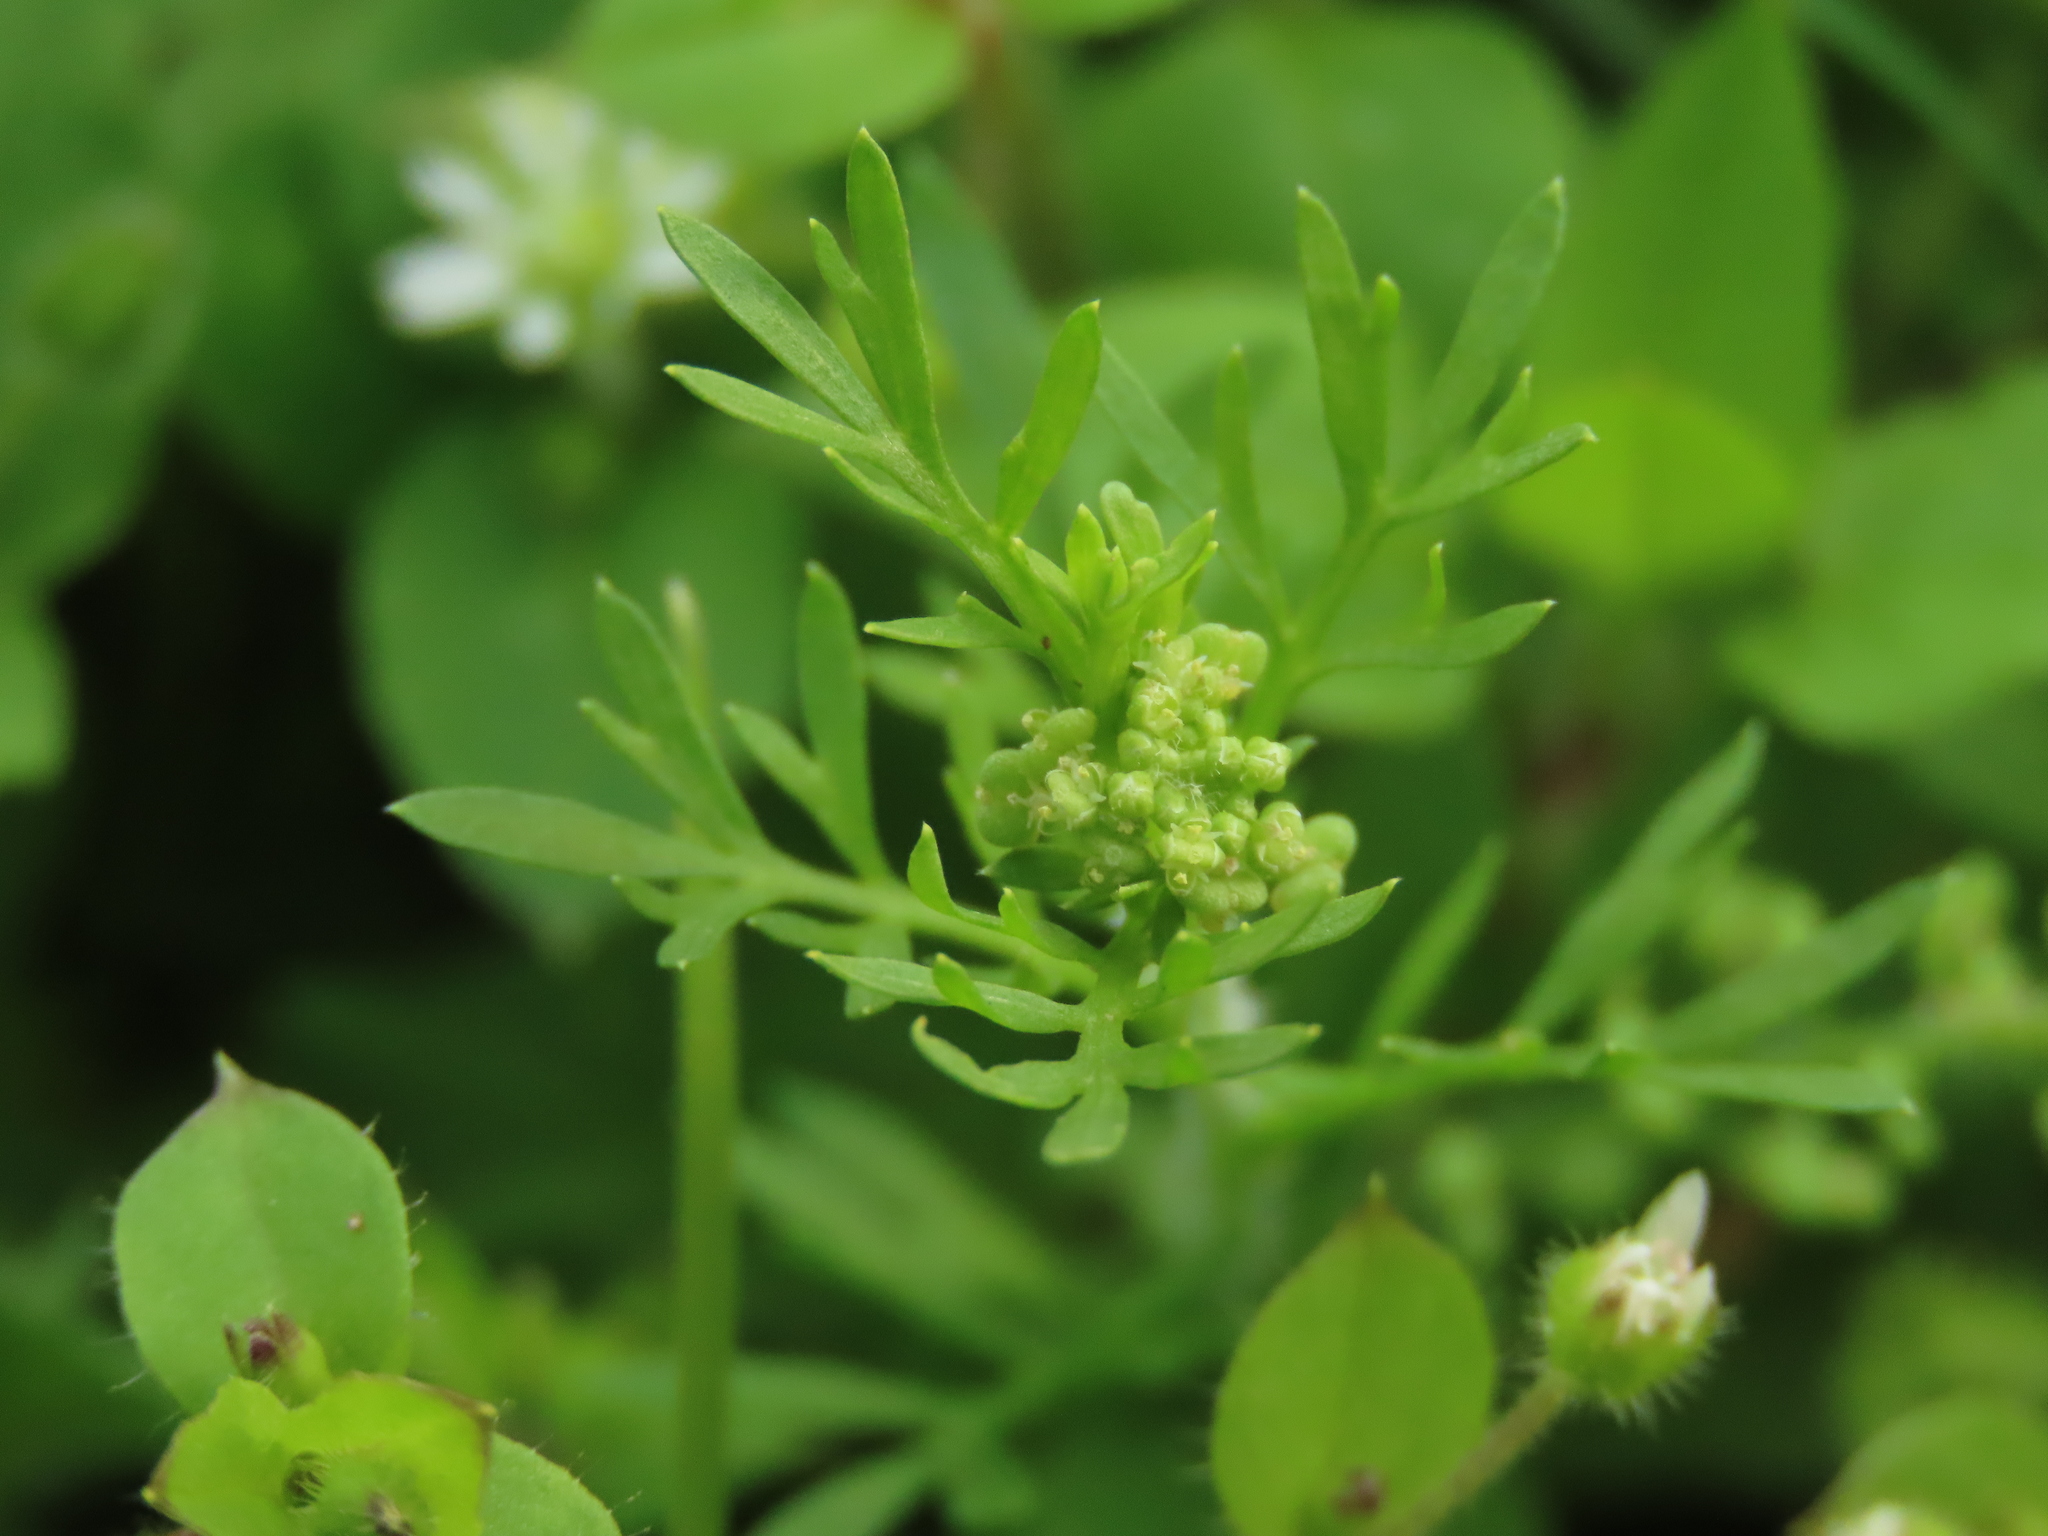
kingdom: Plantae
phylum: Tracheophyta
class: Magnoliopsida
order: Brassicales
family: Brassicaceae
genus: Lepidium
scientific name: Lepidium didymum
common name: Lesser swinecress
